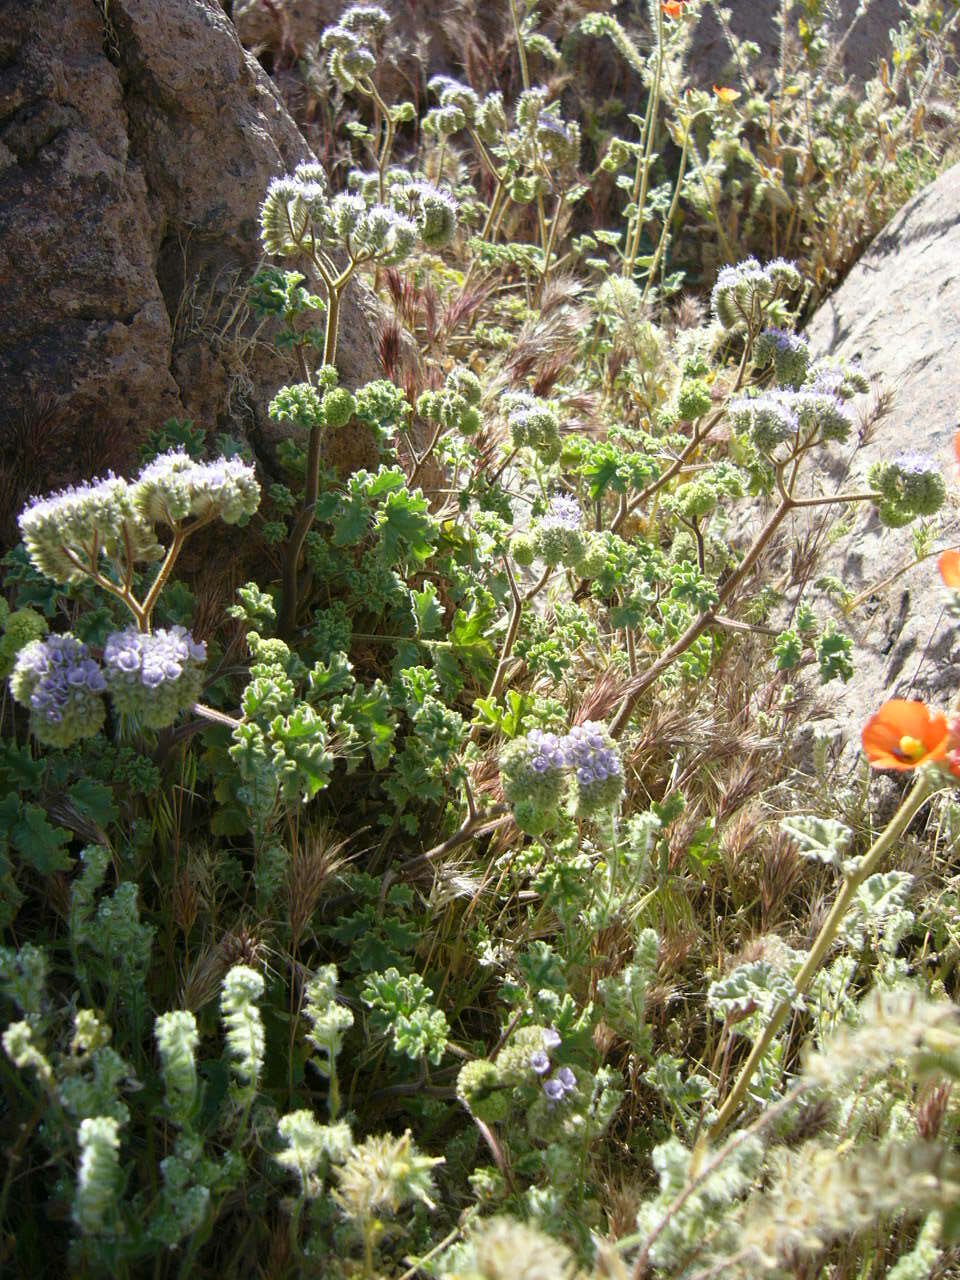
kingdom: Plantae
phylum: Tracheophyta
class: Magnoliopsida
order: Boraginales
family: Hydrophyllaceae
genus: Phacelia
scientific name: Phacelia pedicellata
